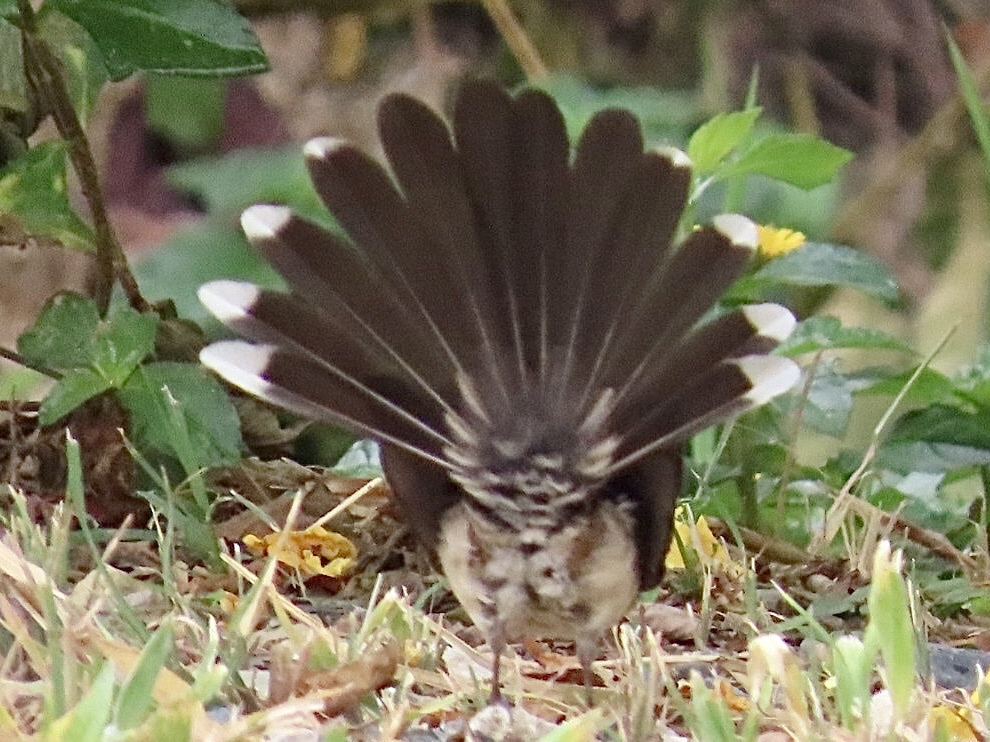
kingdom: Animalia
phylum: Chordata
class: Aves
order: Passeriformes
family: Rhipiduridae
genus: Rhipidura
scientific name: Rhipidura javanica
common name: Pied fantail
